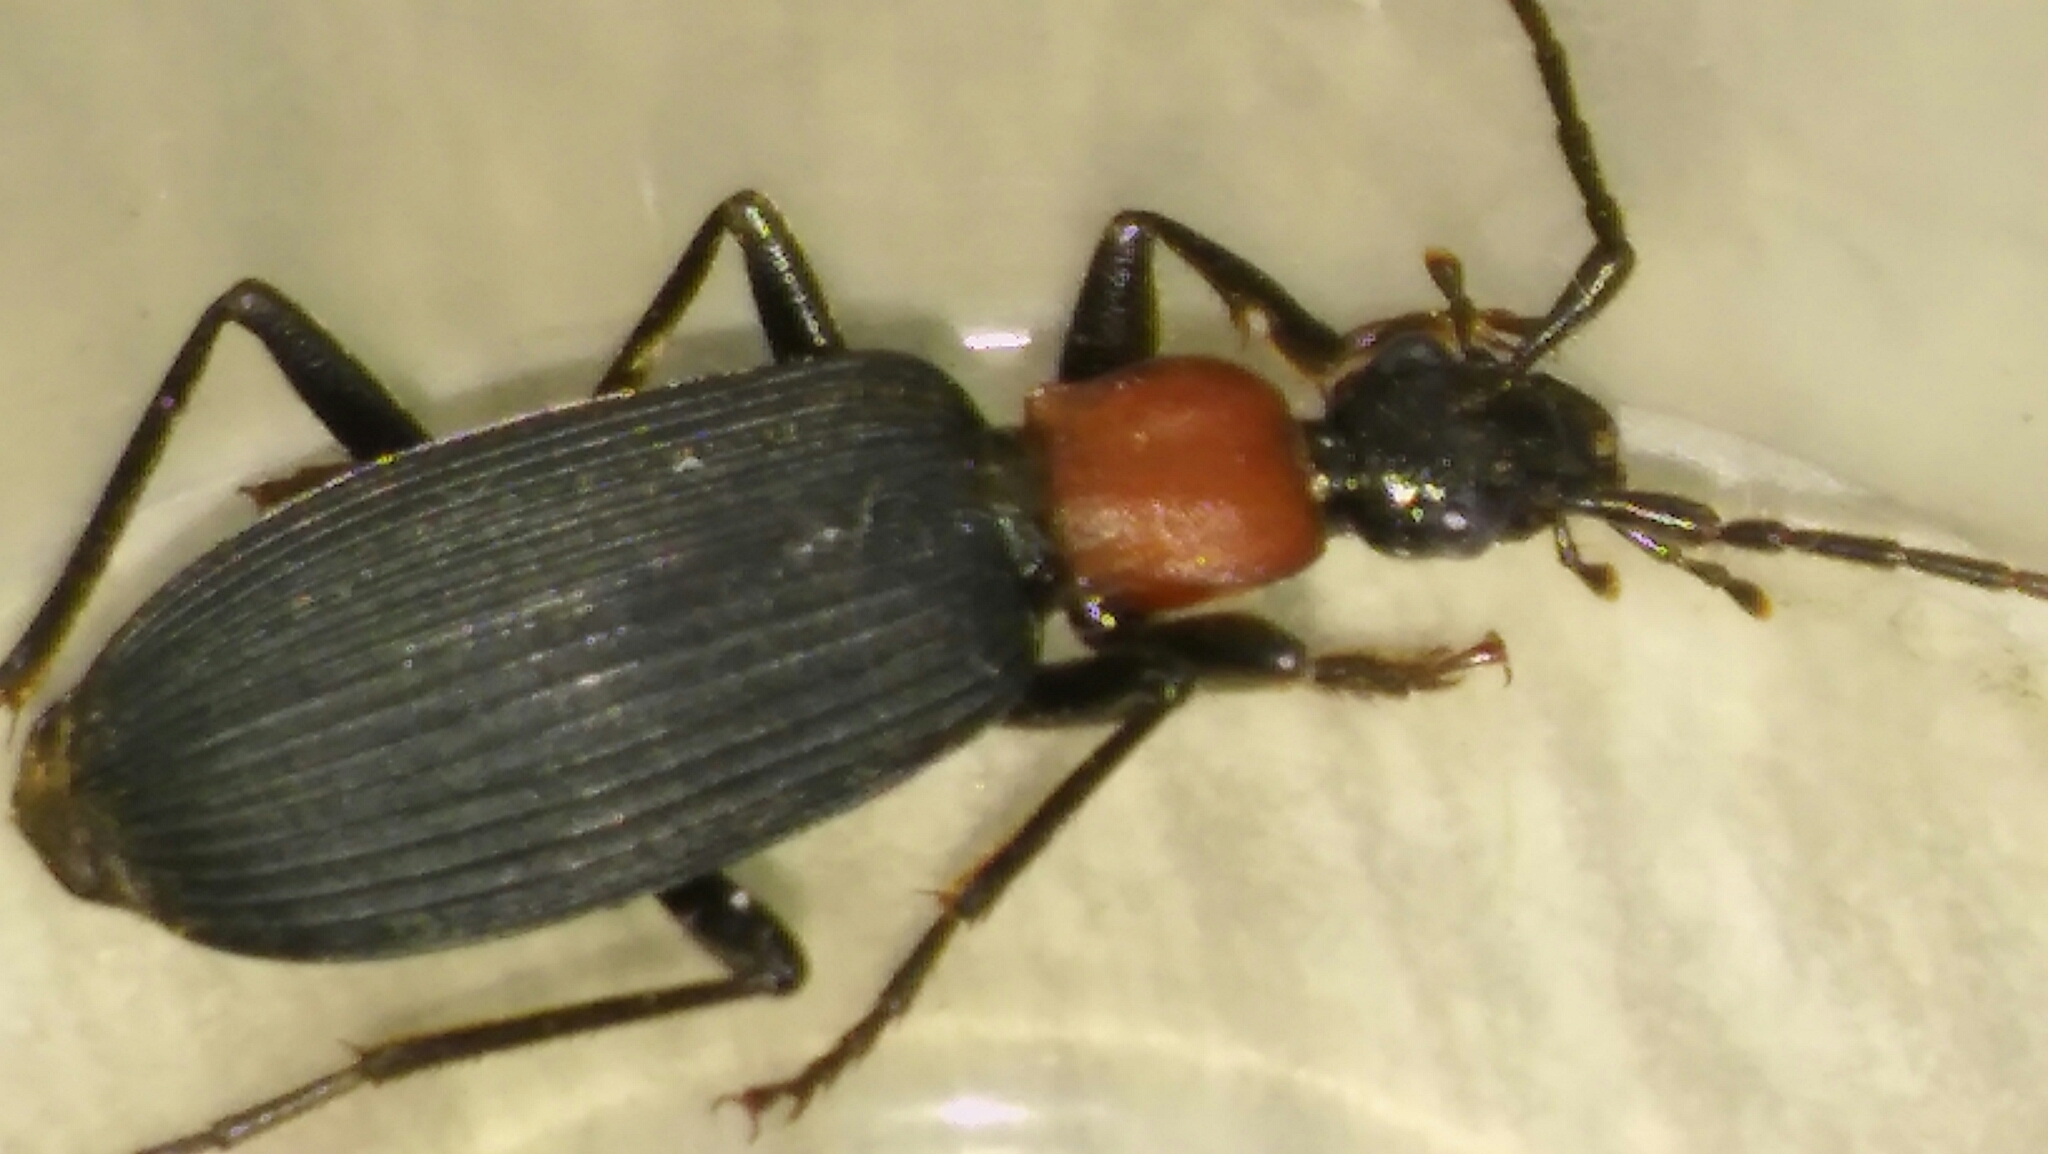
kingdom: Animalia
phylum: Arthropoda
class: Insecta
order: Coleoptera
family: Carabidae
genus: Galerita
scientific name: Galerita collaris
